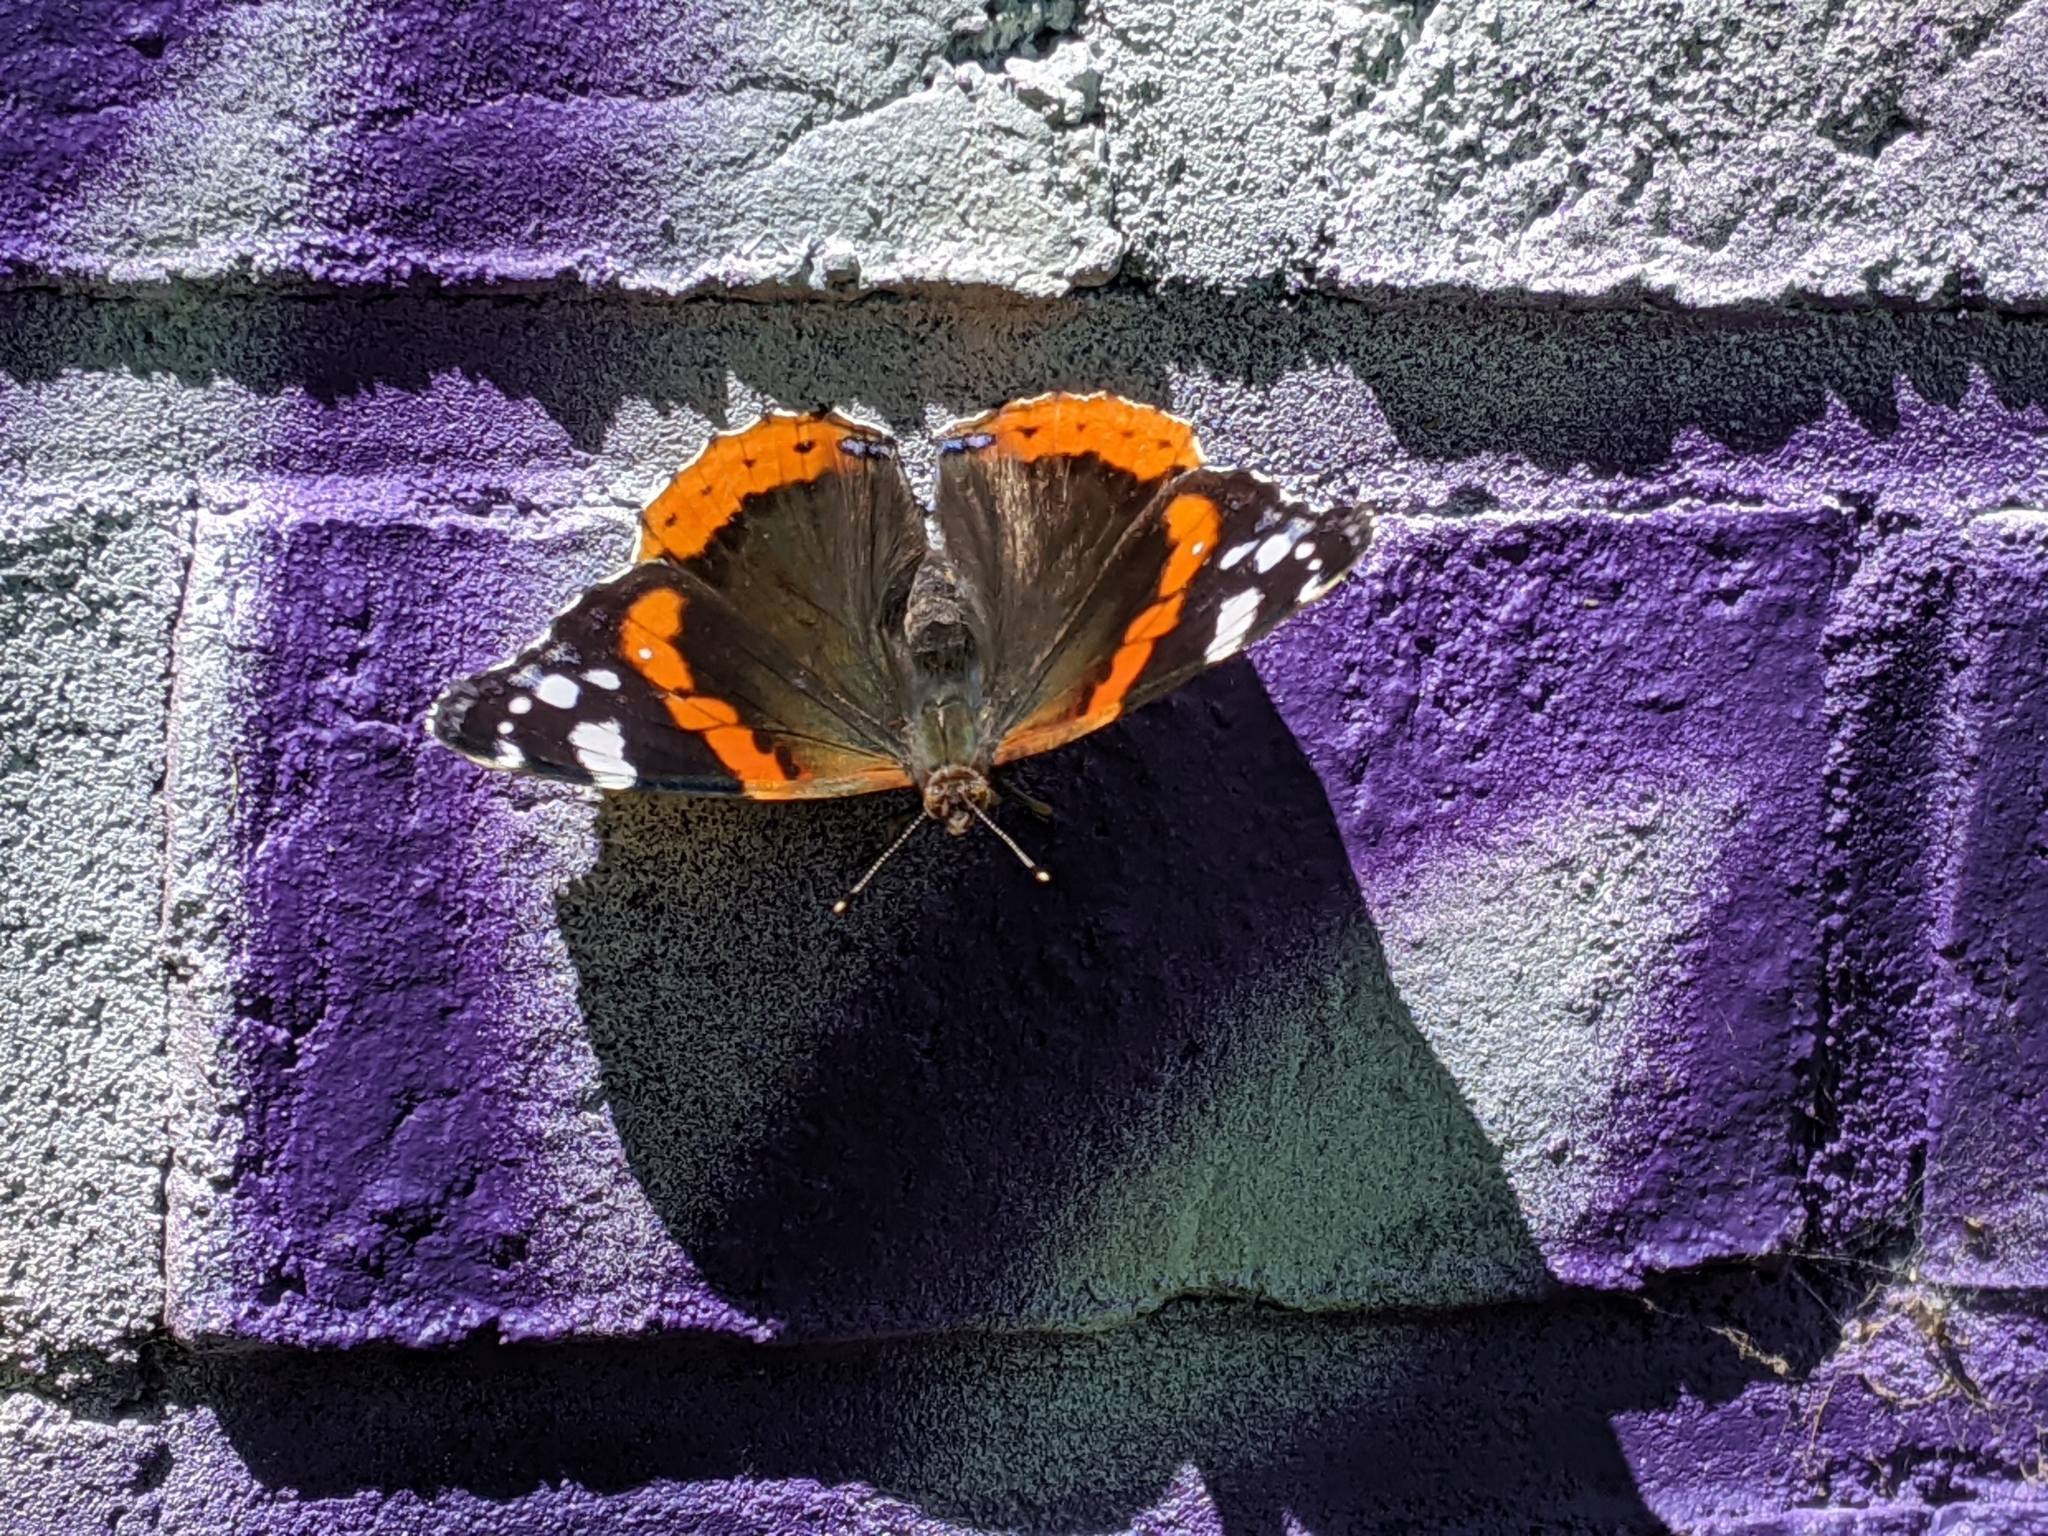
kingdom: Animalia
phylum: Arthropoda
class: Insecta
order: Lepidoptera
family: Nymphalidae
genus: Vanessa
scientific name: Vanessa atalanta
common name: Red admiral
